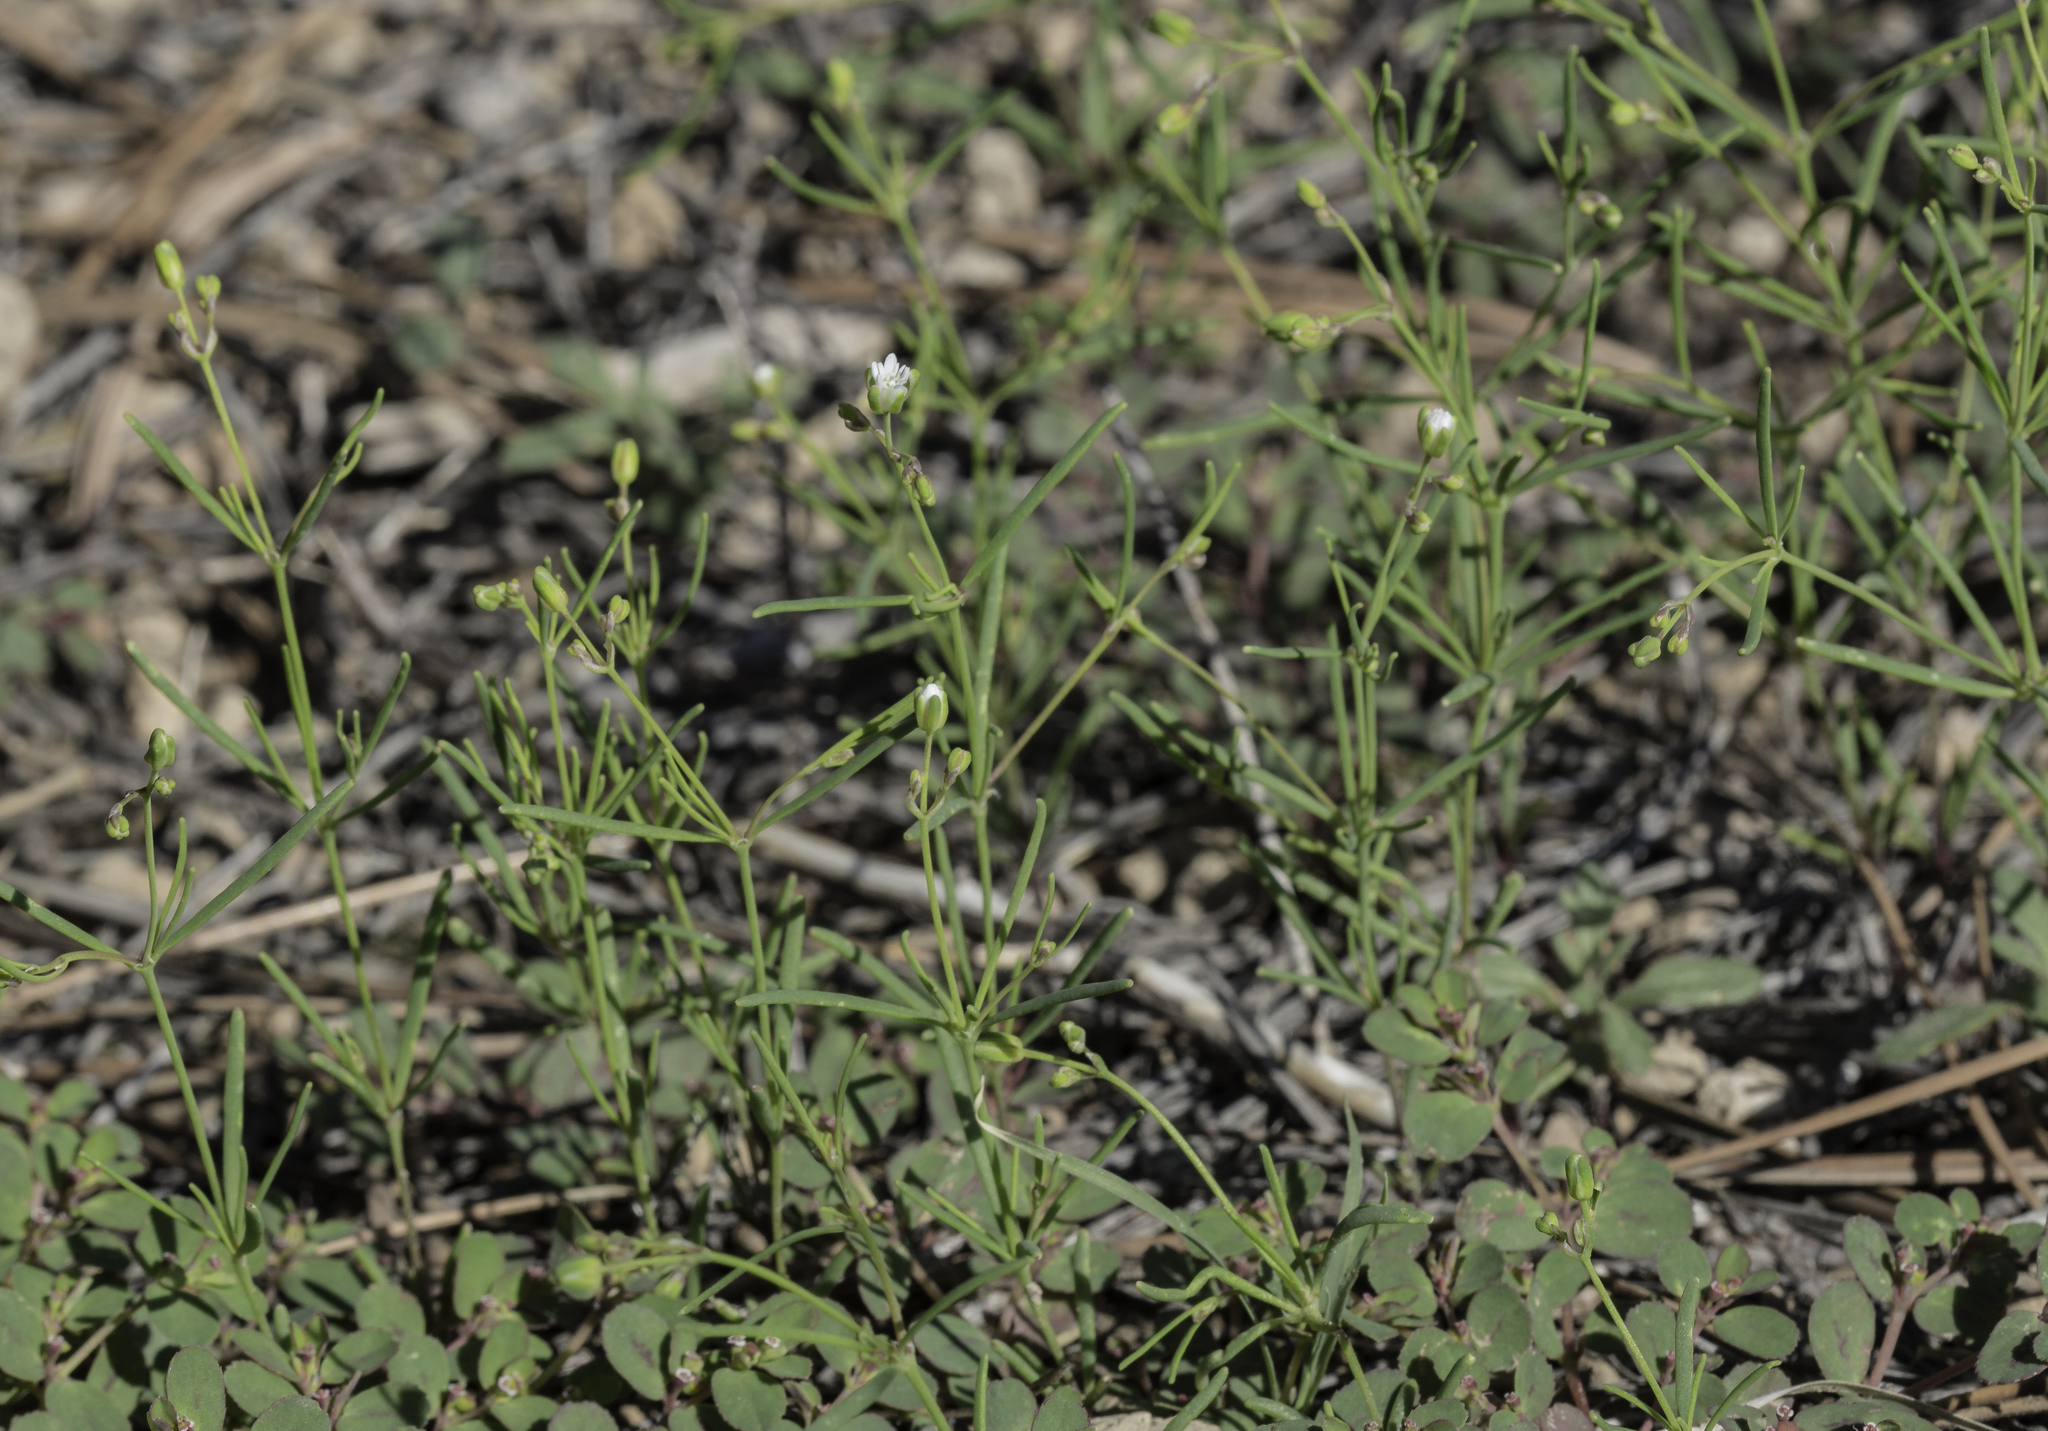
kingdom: Plantae
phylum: Tracheophyta
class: Magnoliopsida
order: Caryophyllales
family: Caryophyllaceae
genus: Drymaria
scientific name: Drymaria molluginea
